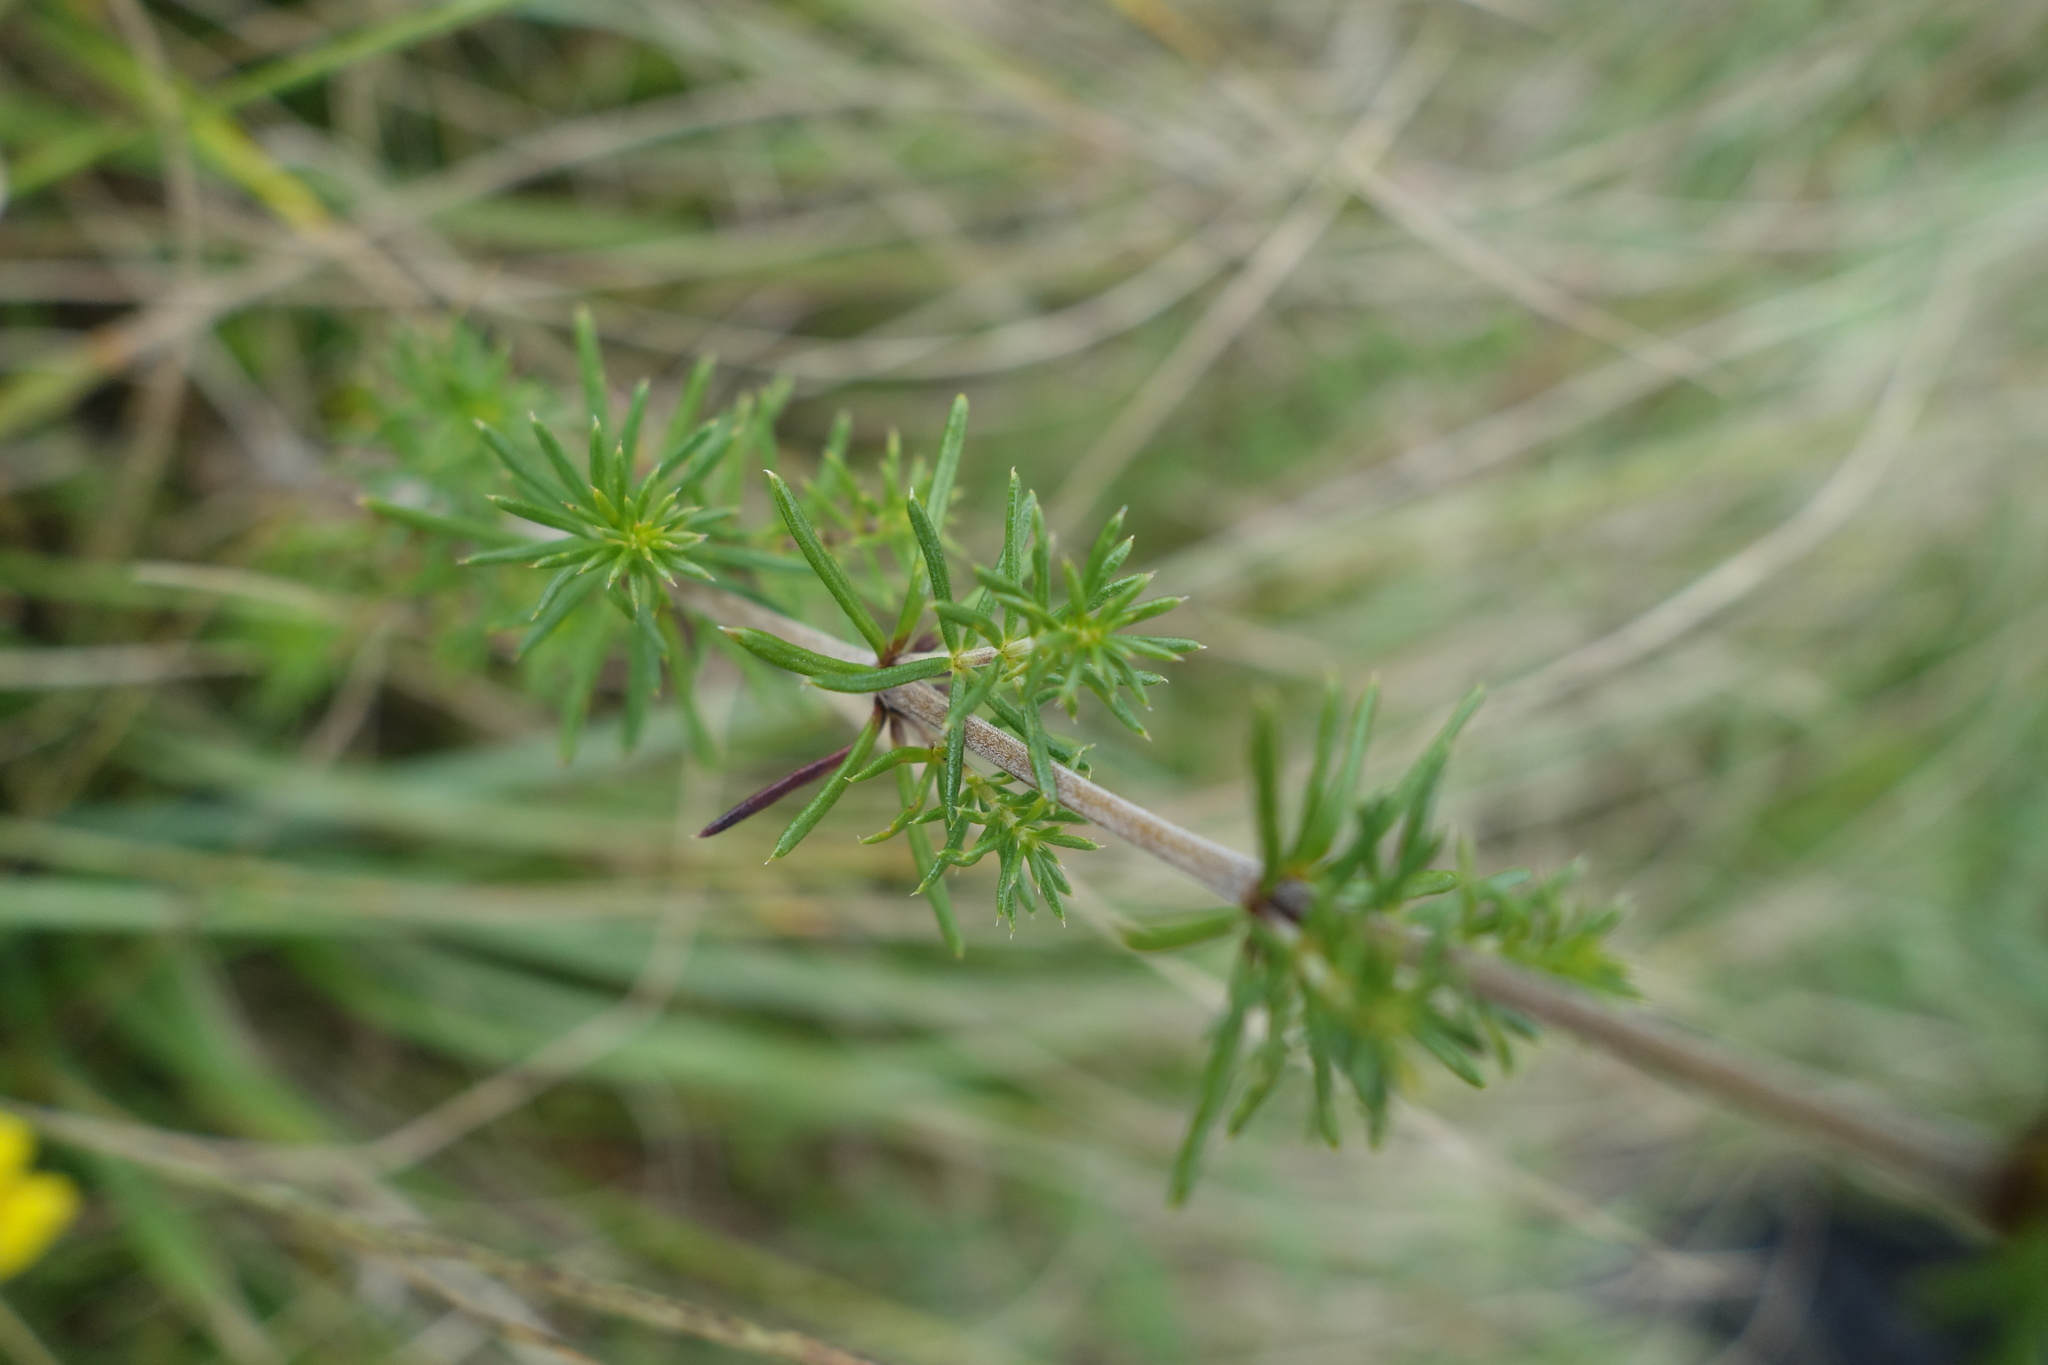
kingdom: Plantae
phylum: Tracheophyta
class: Magnoliopsida
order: Gentianales
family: Rubiaceae
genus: Galium
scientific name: Galium verum
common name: Lady's bedstraw
